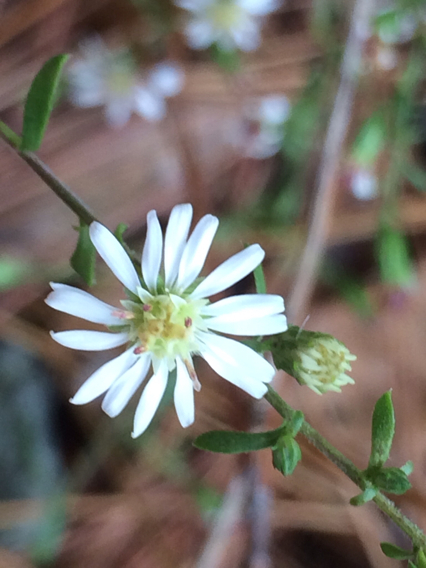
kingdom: Plantae
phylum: Tracheophyta
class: Magnoliopsida
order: Asterales
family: Asteraceae
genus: Symphyotrichum
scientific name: Symphyotrichum lateriflorum
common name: Calico aster
